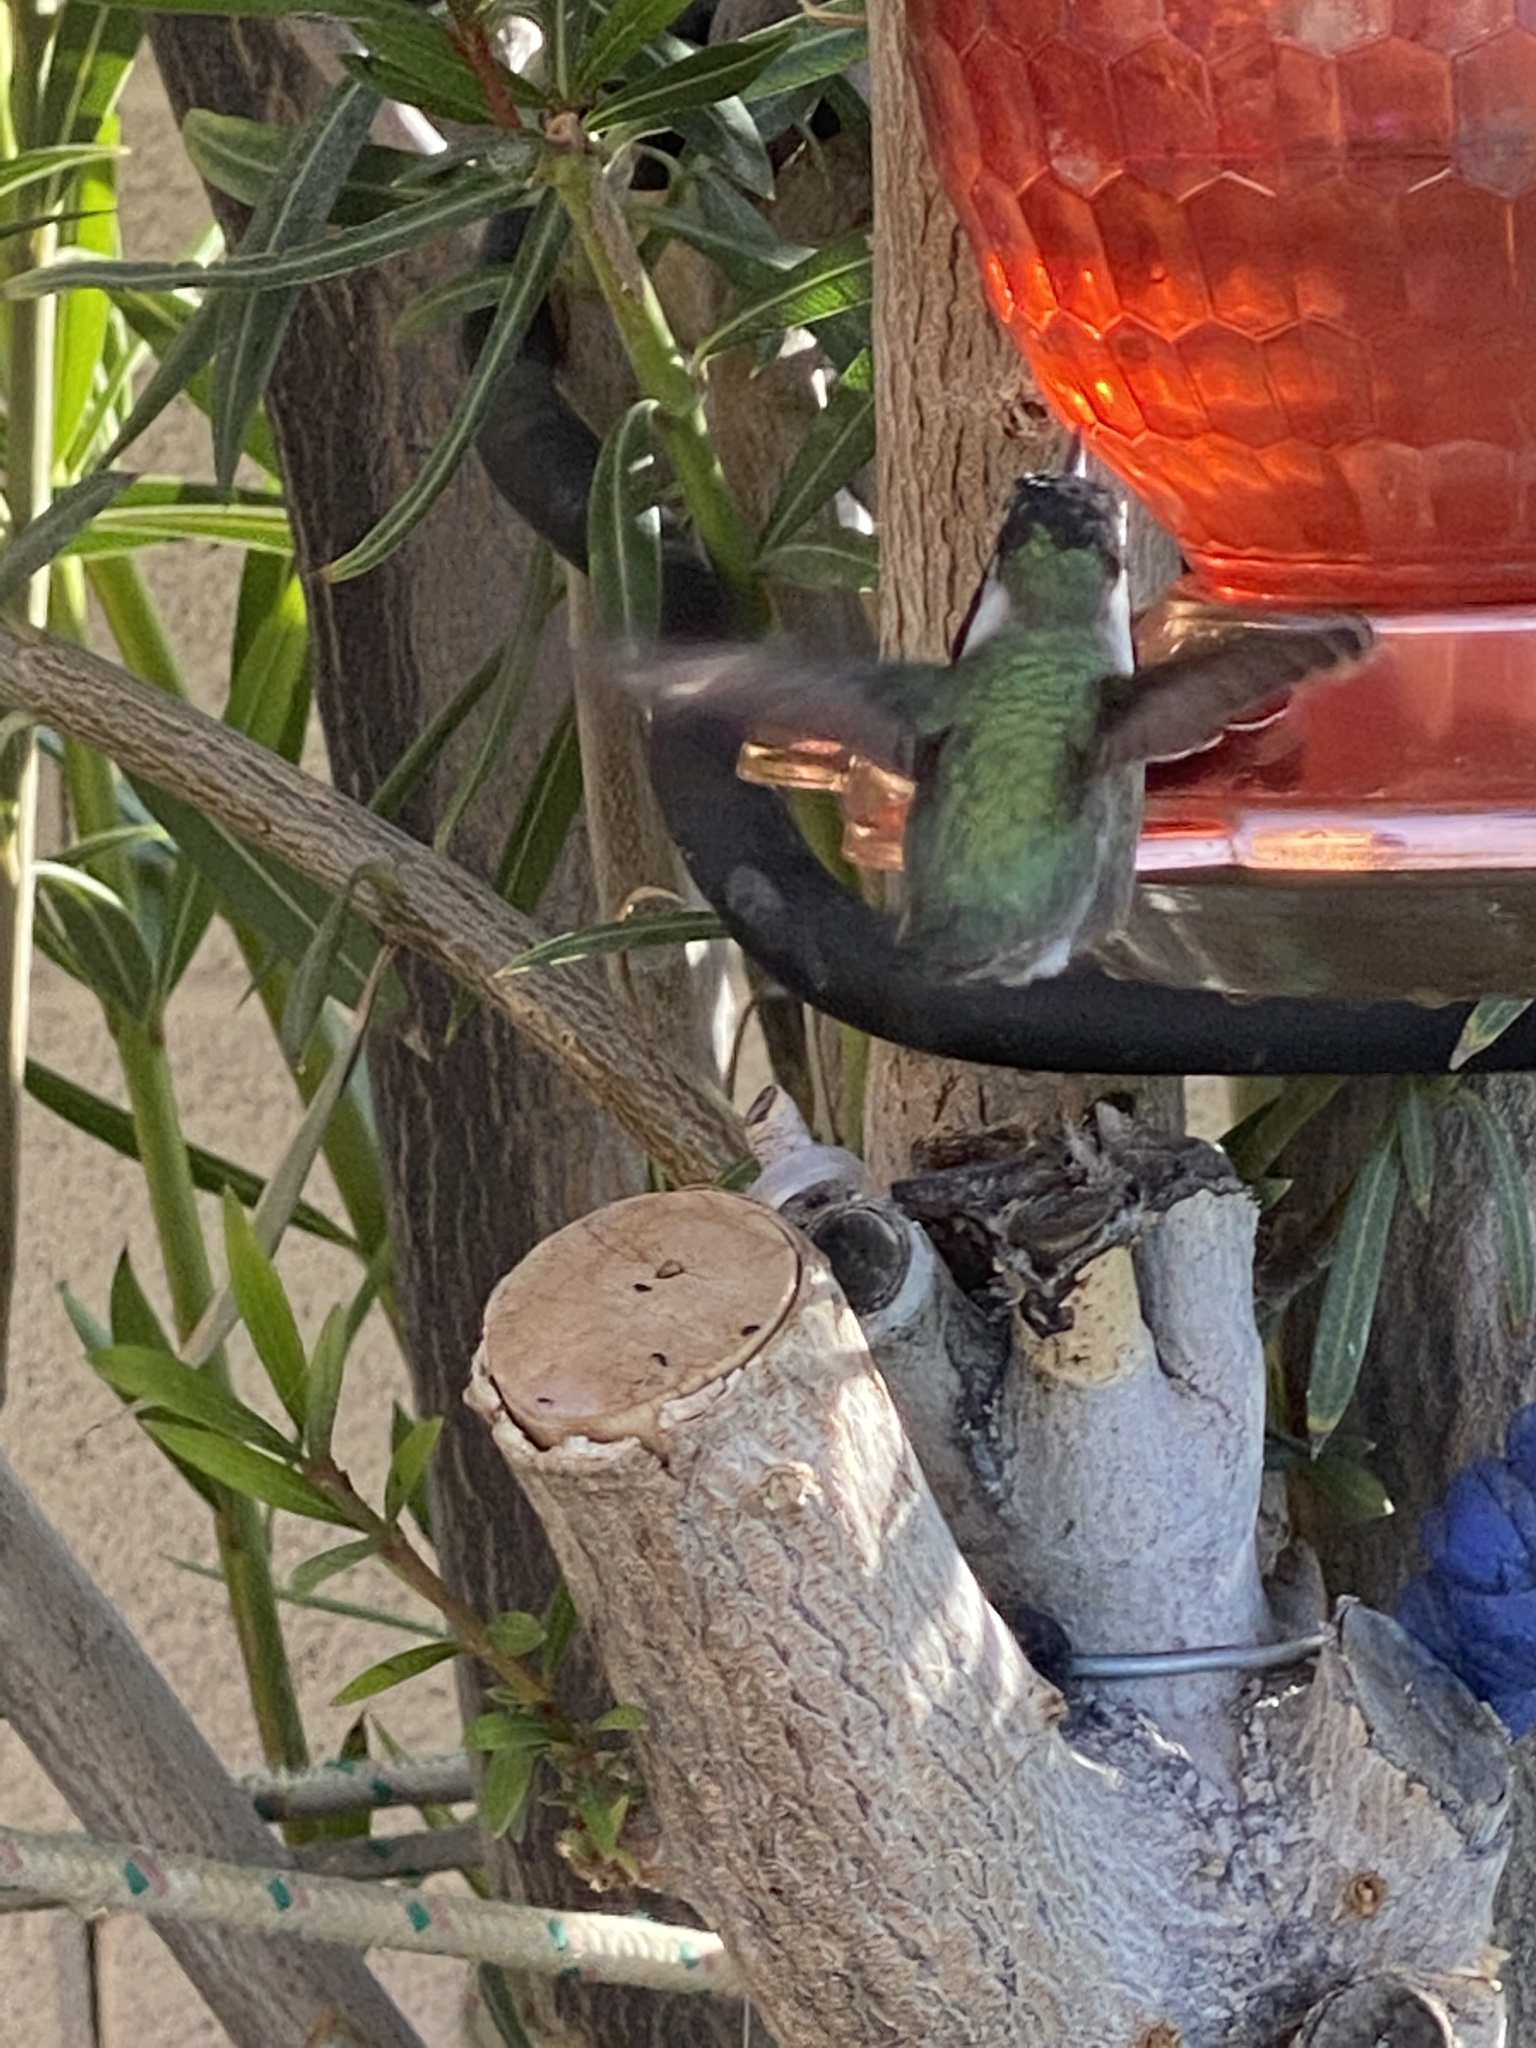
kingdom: Animalia
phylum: Chordata
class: Aves
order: Apodiformes
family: Trochilidae
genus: Calypte
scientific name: Calypte costae
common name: Costa's hummingbird
